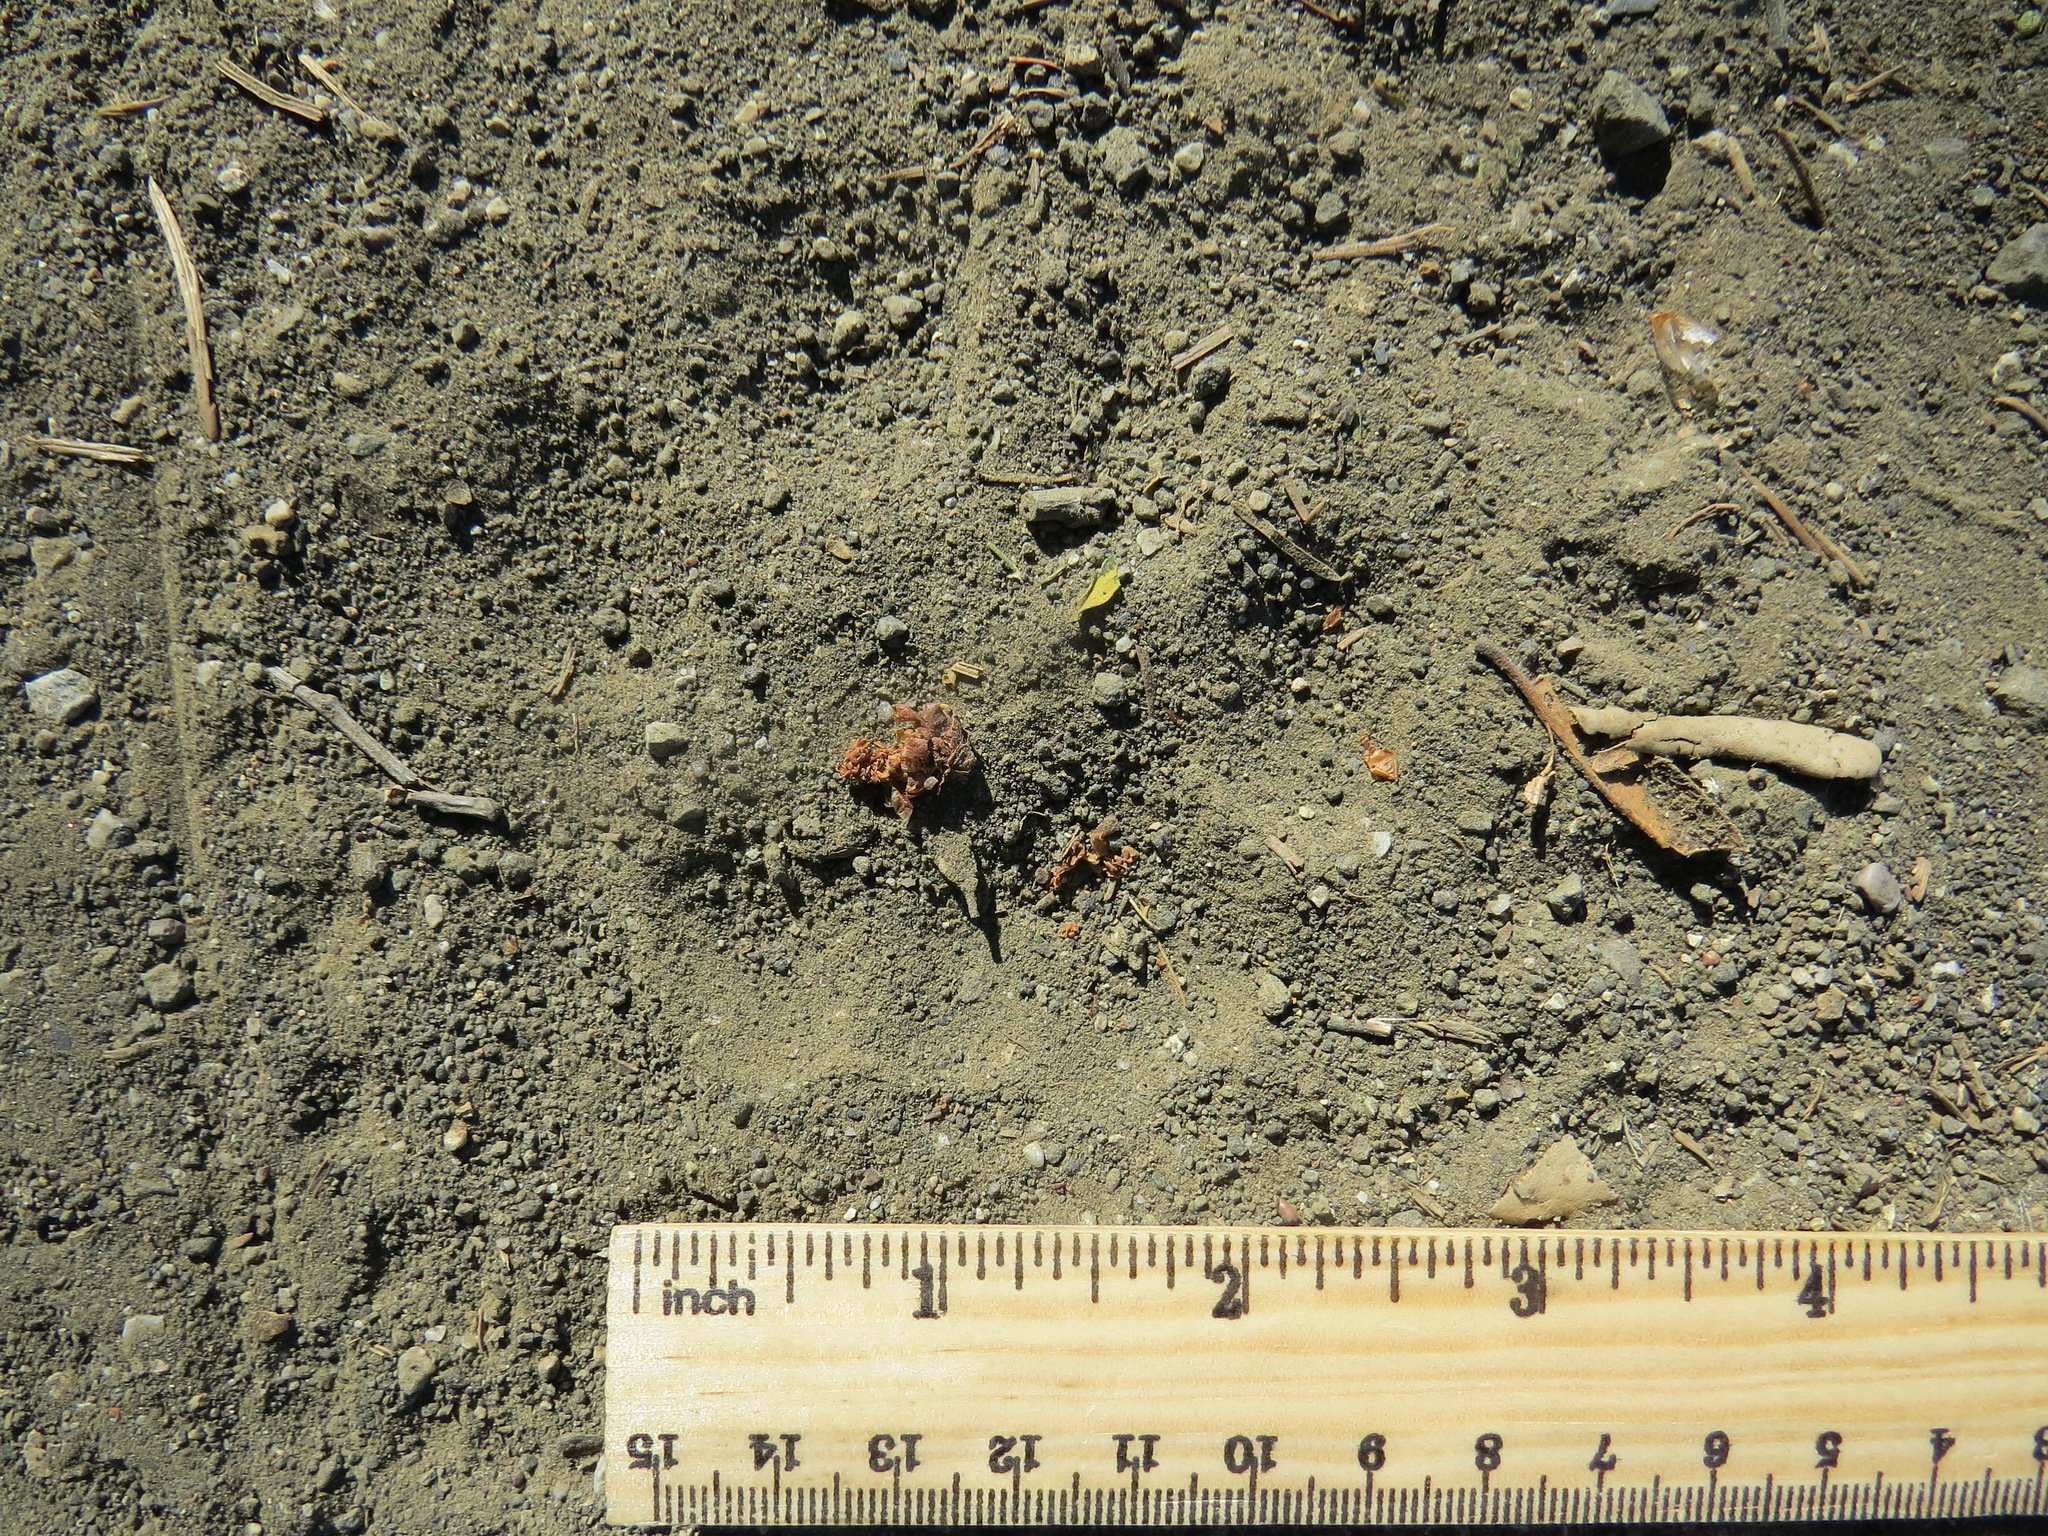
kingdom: Animalia
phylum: Chordata
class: Mammalia
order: Carnivora
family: Felidae
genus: Puma
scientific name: Puma concolor
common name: Puma
